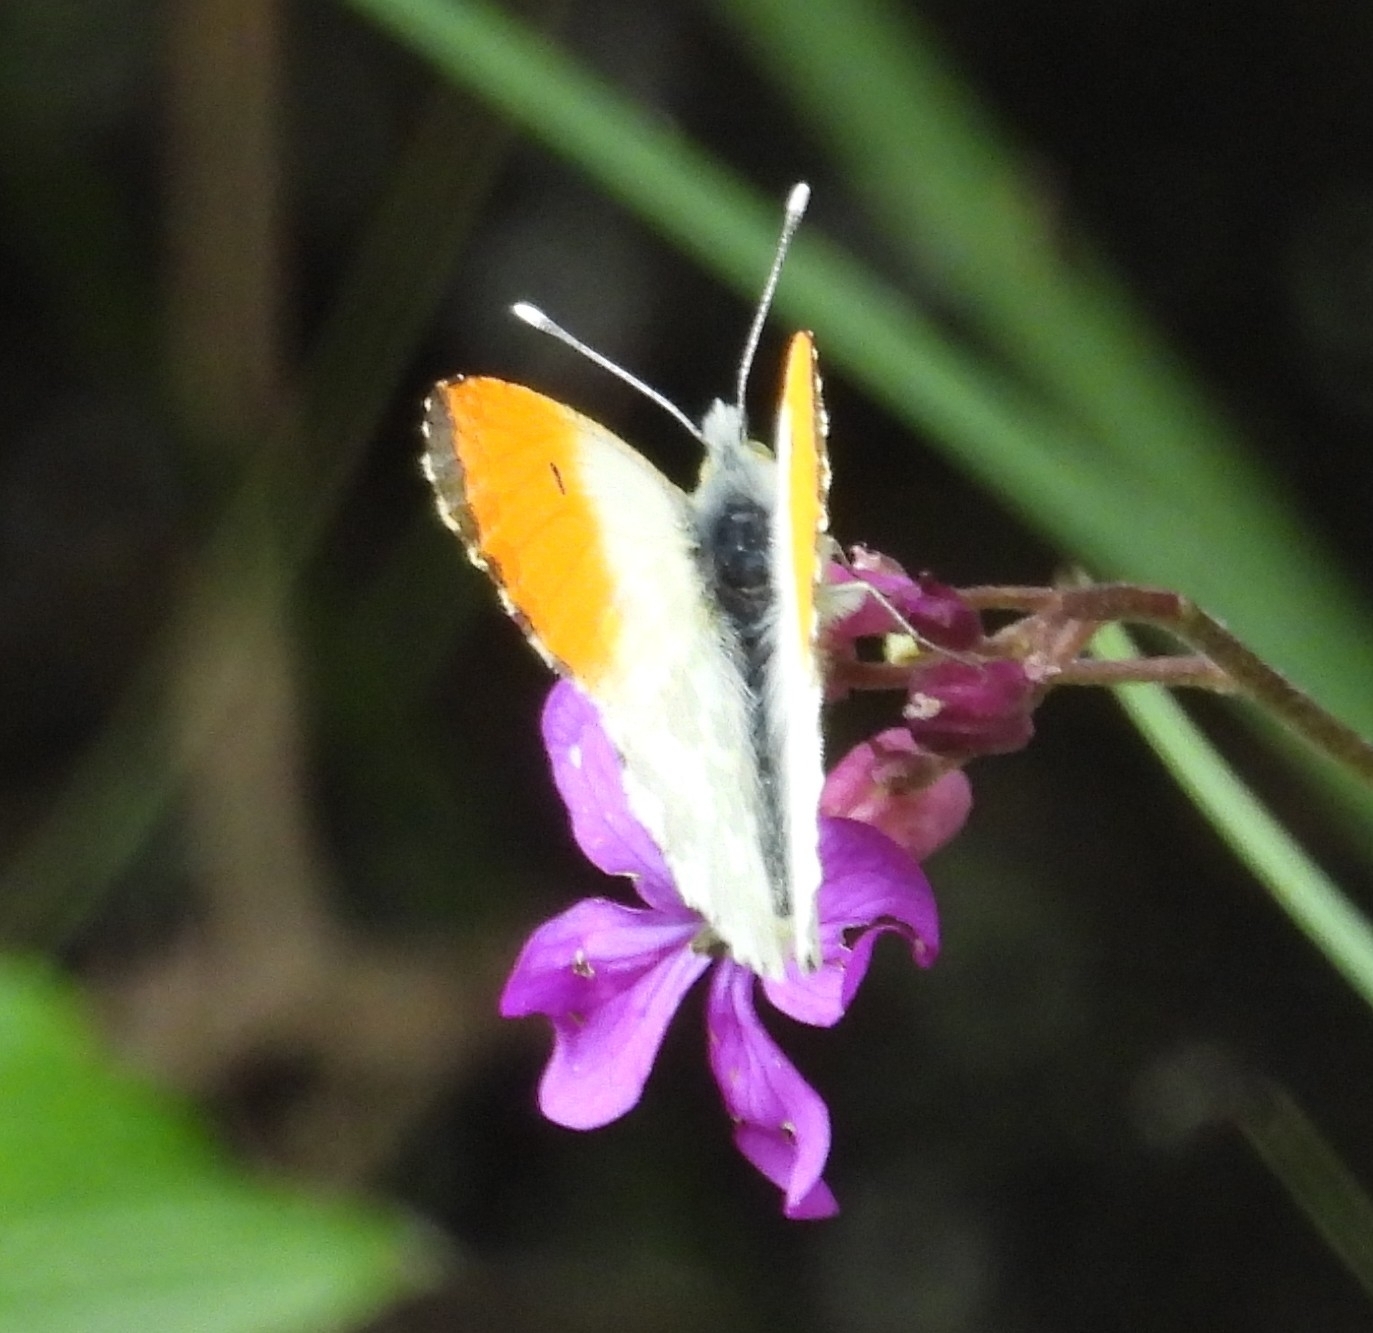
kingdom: Animalia
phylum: Arthropoda
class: Insecta
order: Lepidoptera
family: Pieridae
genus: Anthocharis
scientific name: Anthocharis cardamines
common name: Orange-tip
